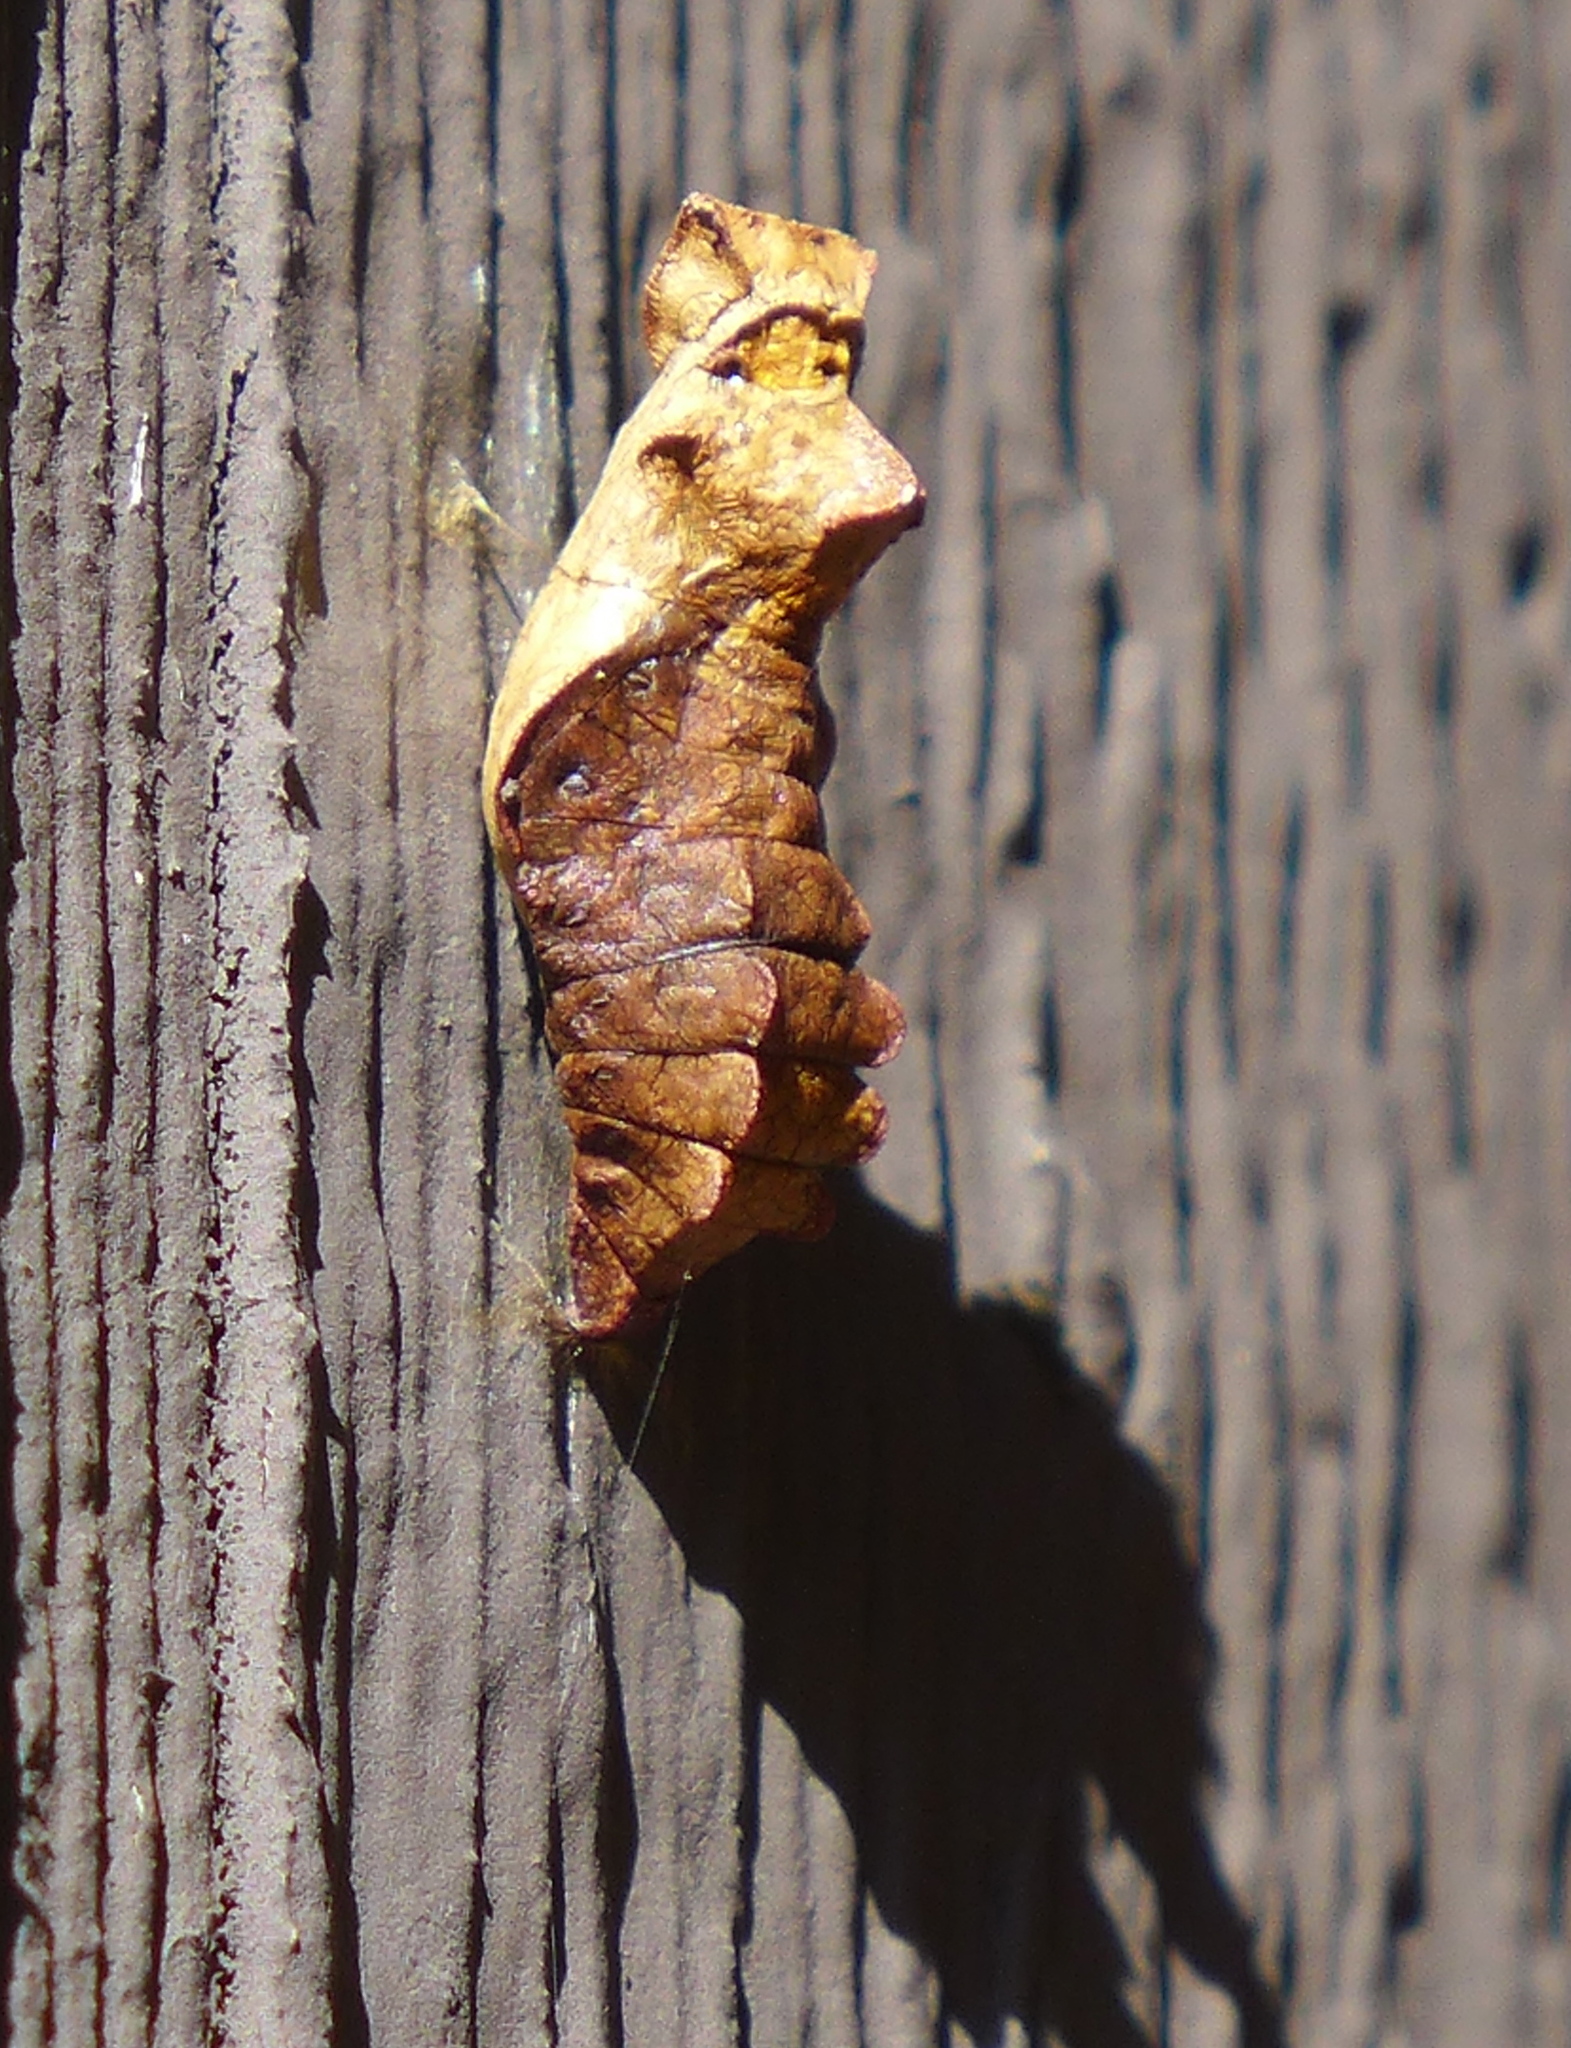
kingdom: Animalia
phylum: Arthropoda
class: Insecta
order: Lepidoptera
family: Papilionidae
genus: Battus
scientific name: Battus philenor
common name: Pipevine swallowtail
